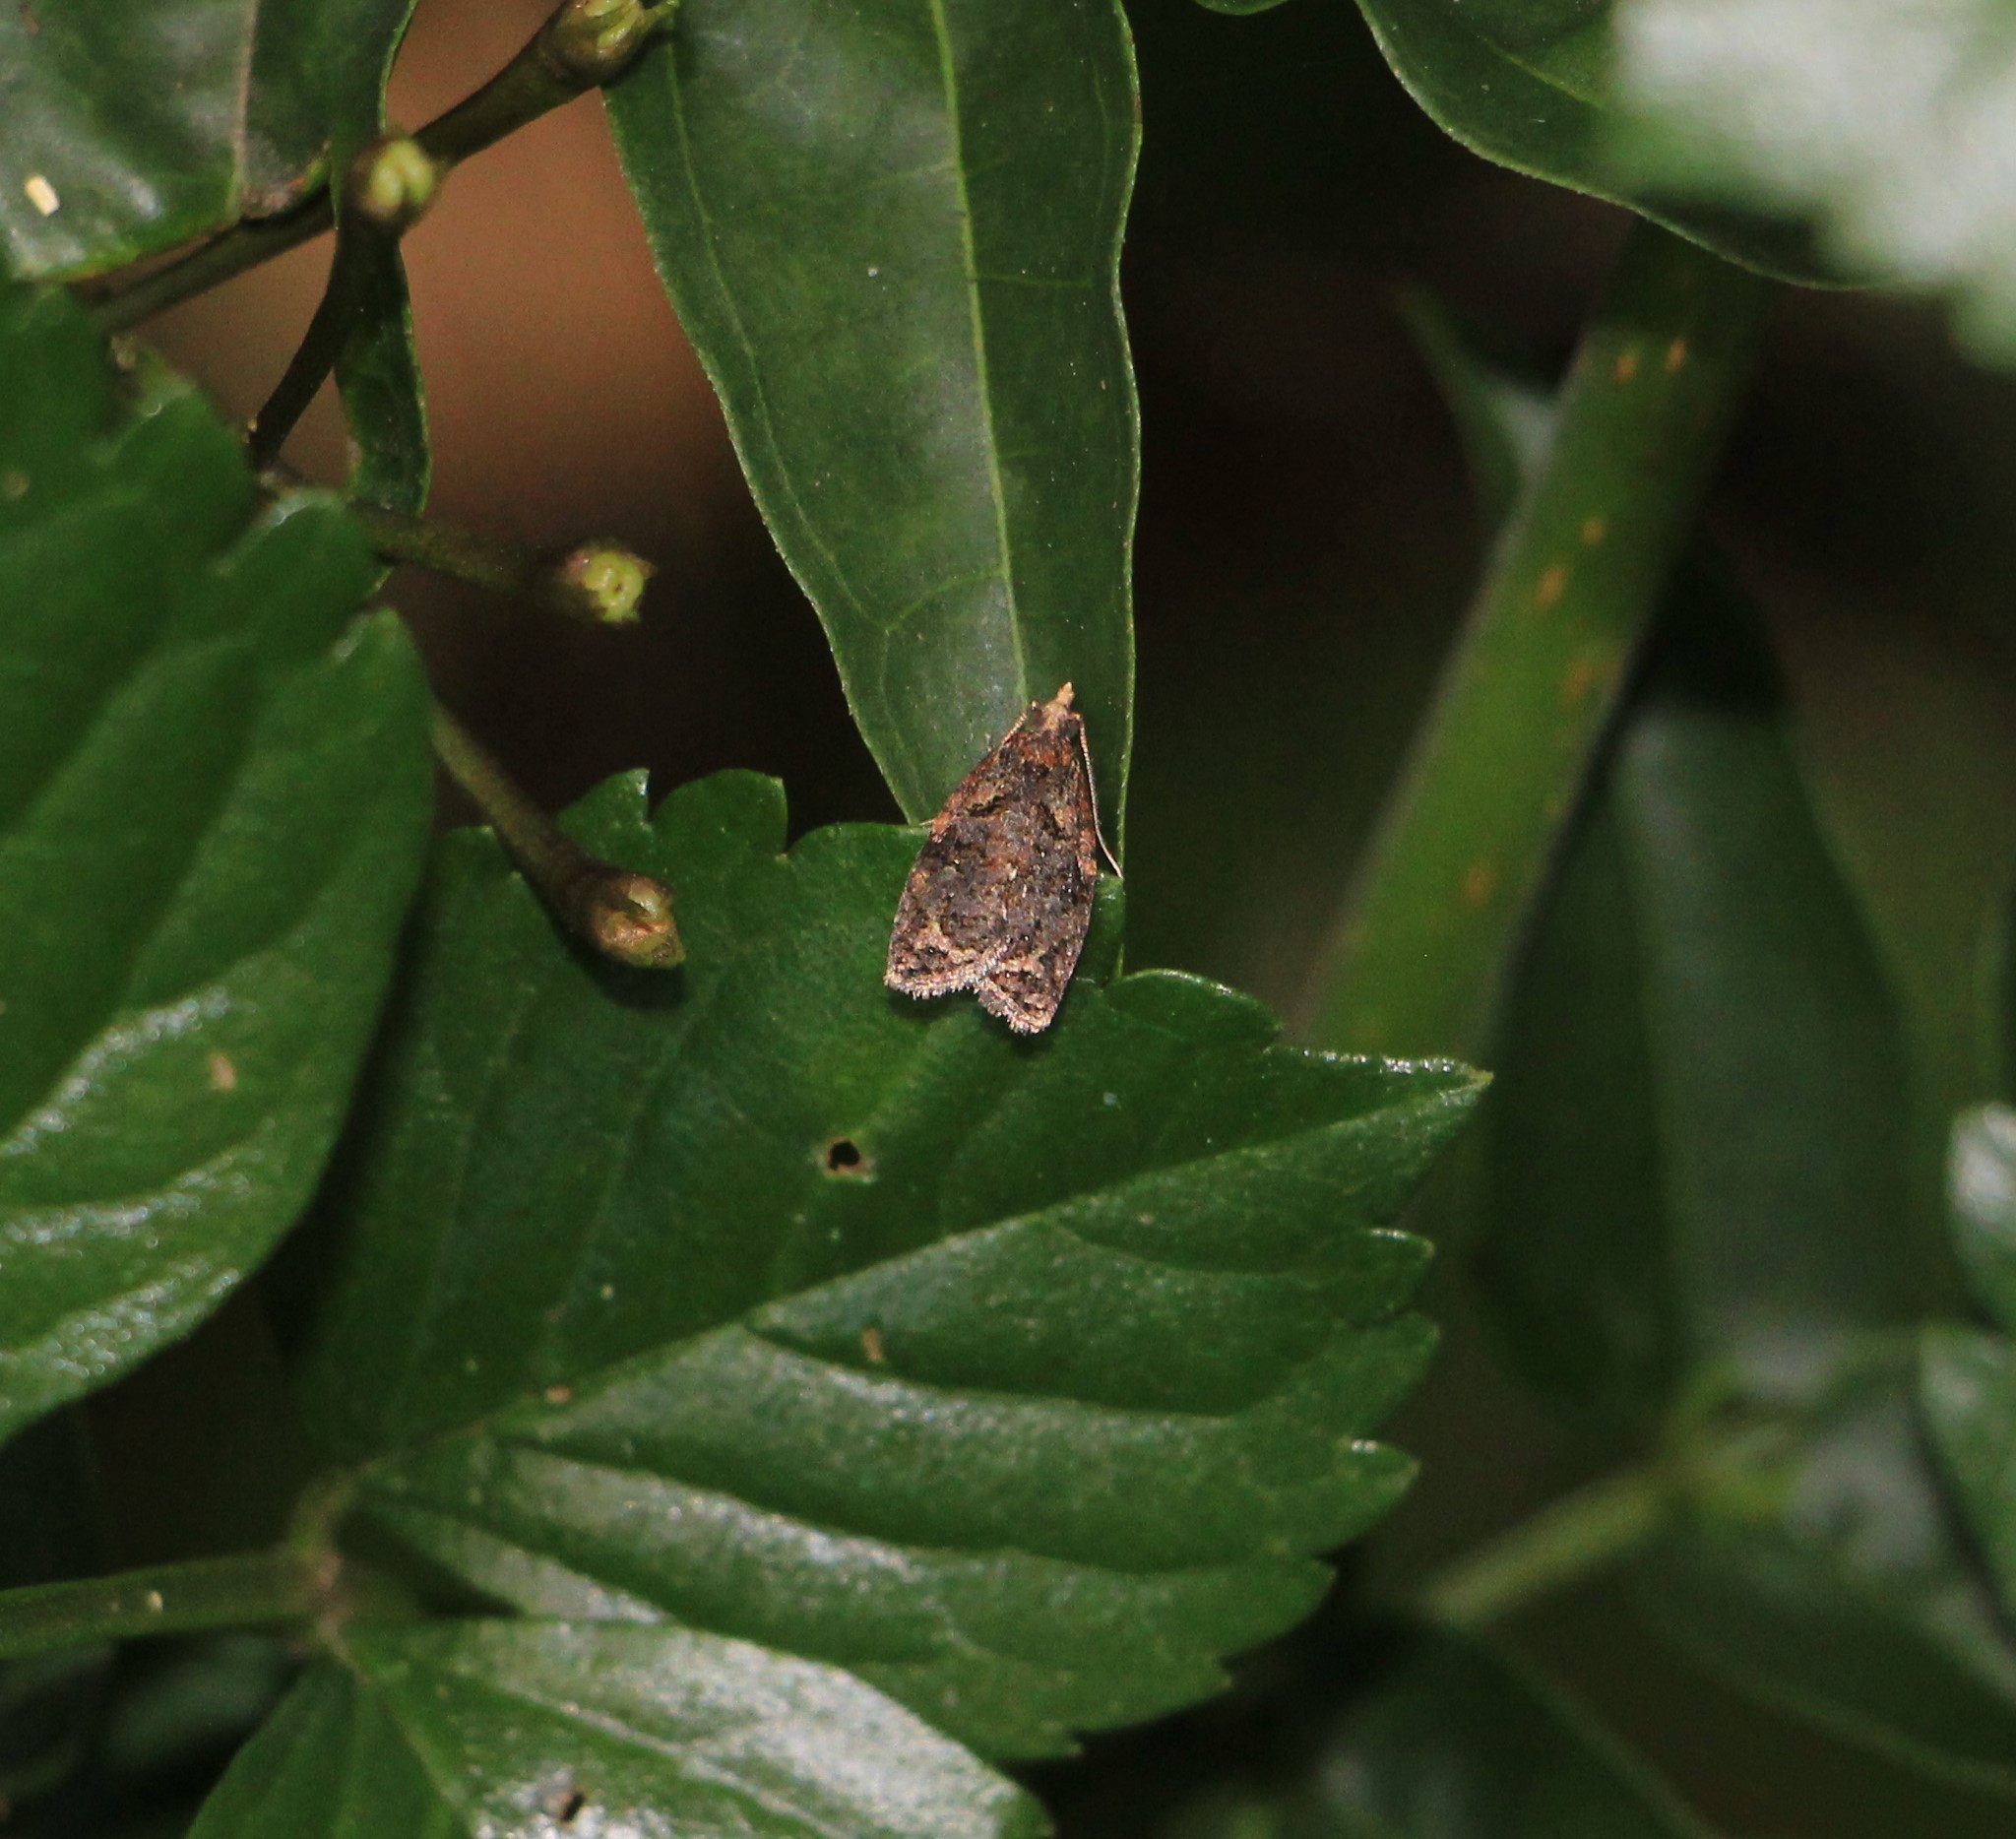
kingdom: Animalia
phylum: Arthropoda
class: Insecta
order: Lepidoptera
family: Tortricidae
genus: Capua
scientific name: Capua intractana
